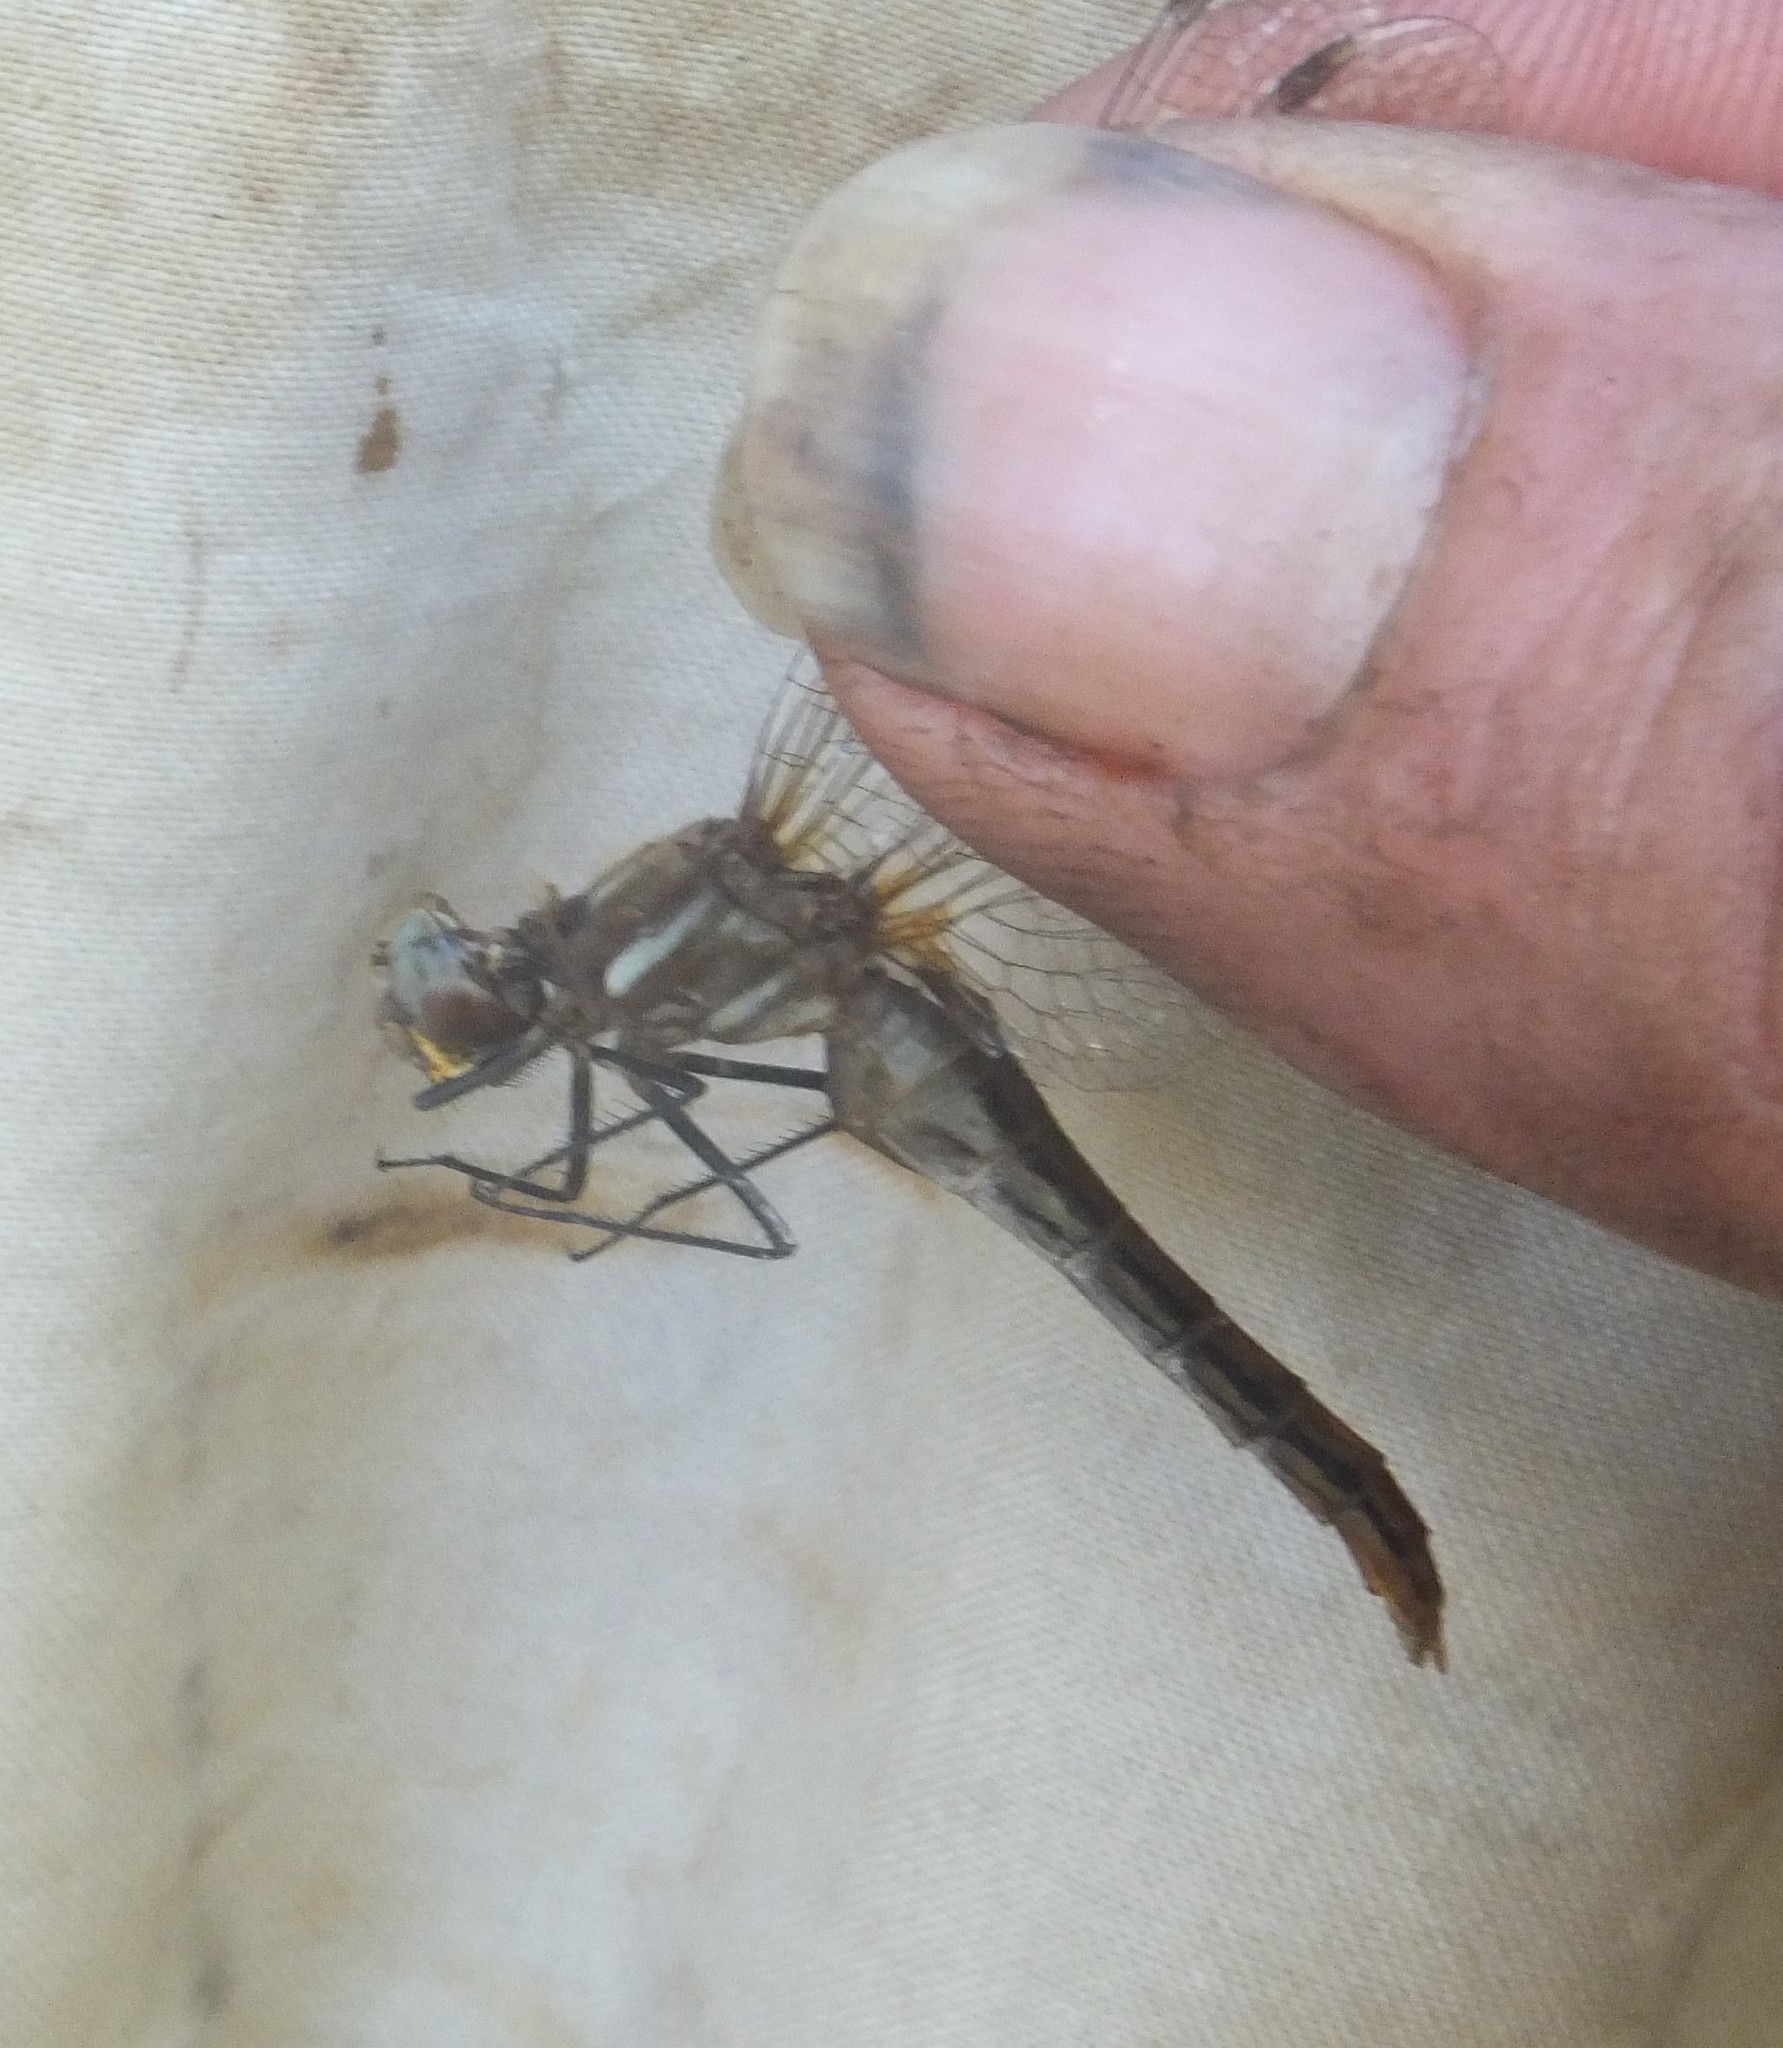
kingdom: Animalia
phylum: Arthropoda
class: Insecta
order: Odonata
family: Libellulidae
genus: Sympetrum
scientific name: Sympetrum pallipes
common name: Striped meadowhawk
